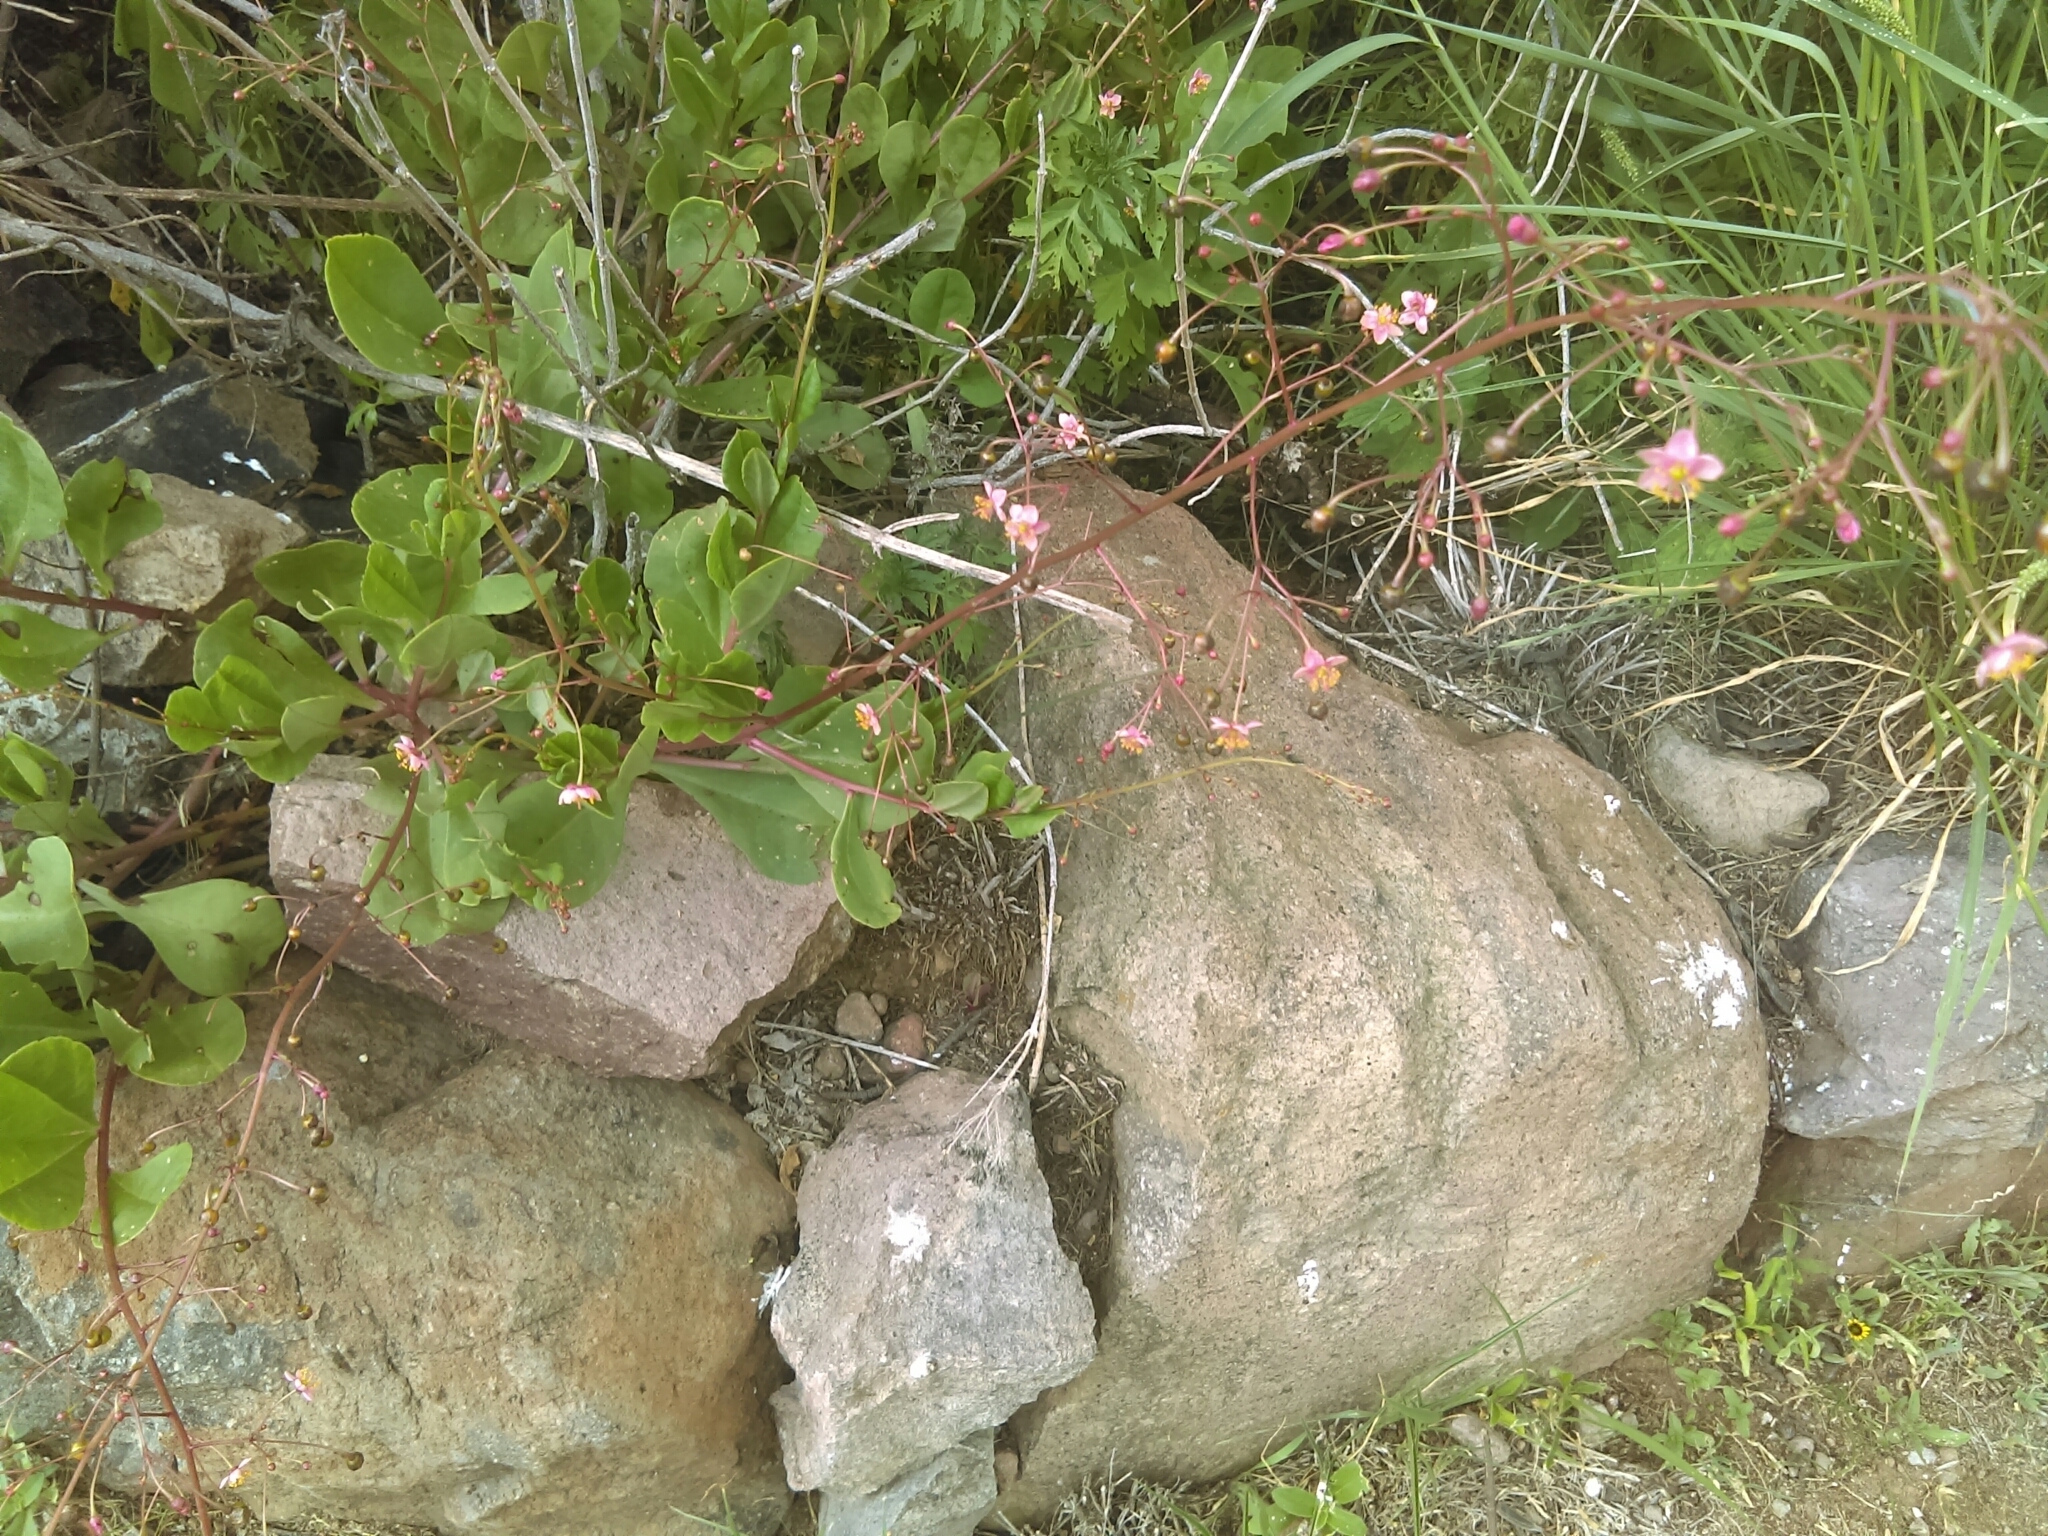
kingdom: Plantae
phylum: Tracheophyta
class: Magnoliopsida
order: Caryophyllales
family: Talinaceae
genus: Talinum
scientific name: Talinum paniculatum
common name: Jewels of opar
